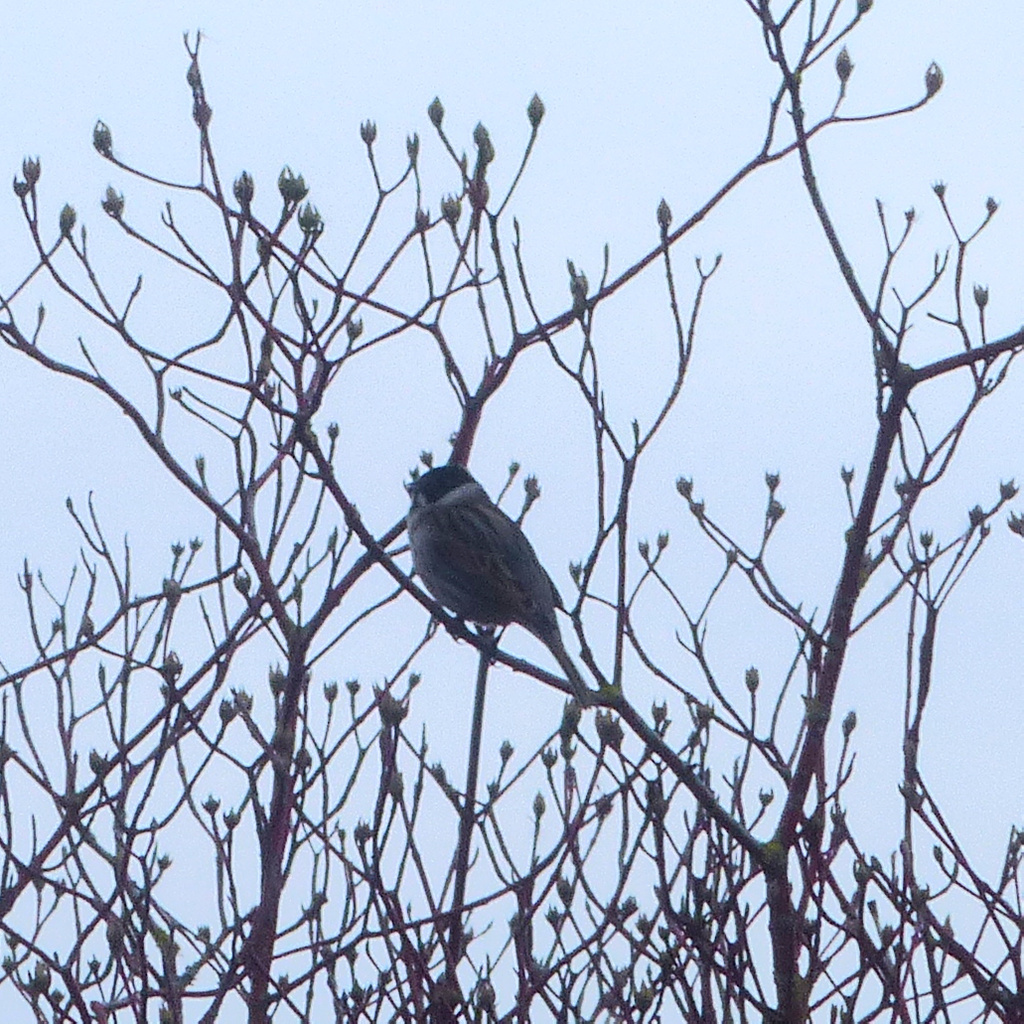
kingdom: Animalia
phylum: Chordata
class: Aves
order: Passeriformes
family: Emberizidae
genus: Emberiza
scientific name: Emberiza schoeniclus
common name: Reed bunting
